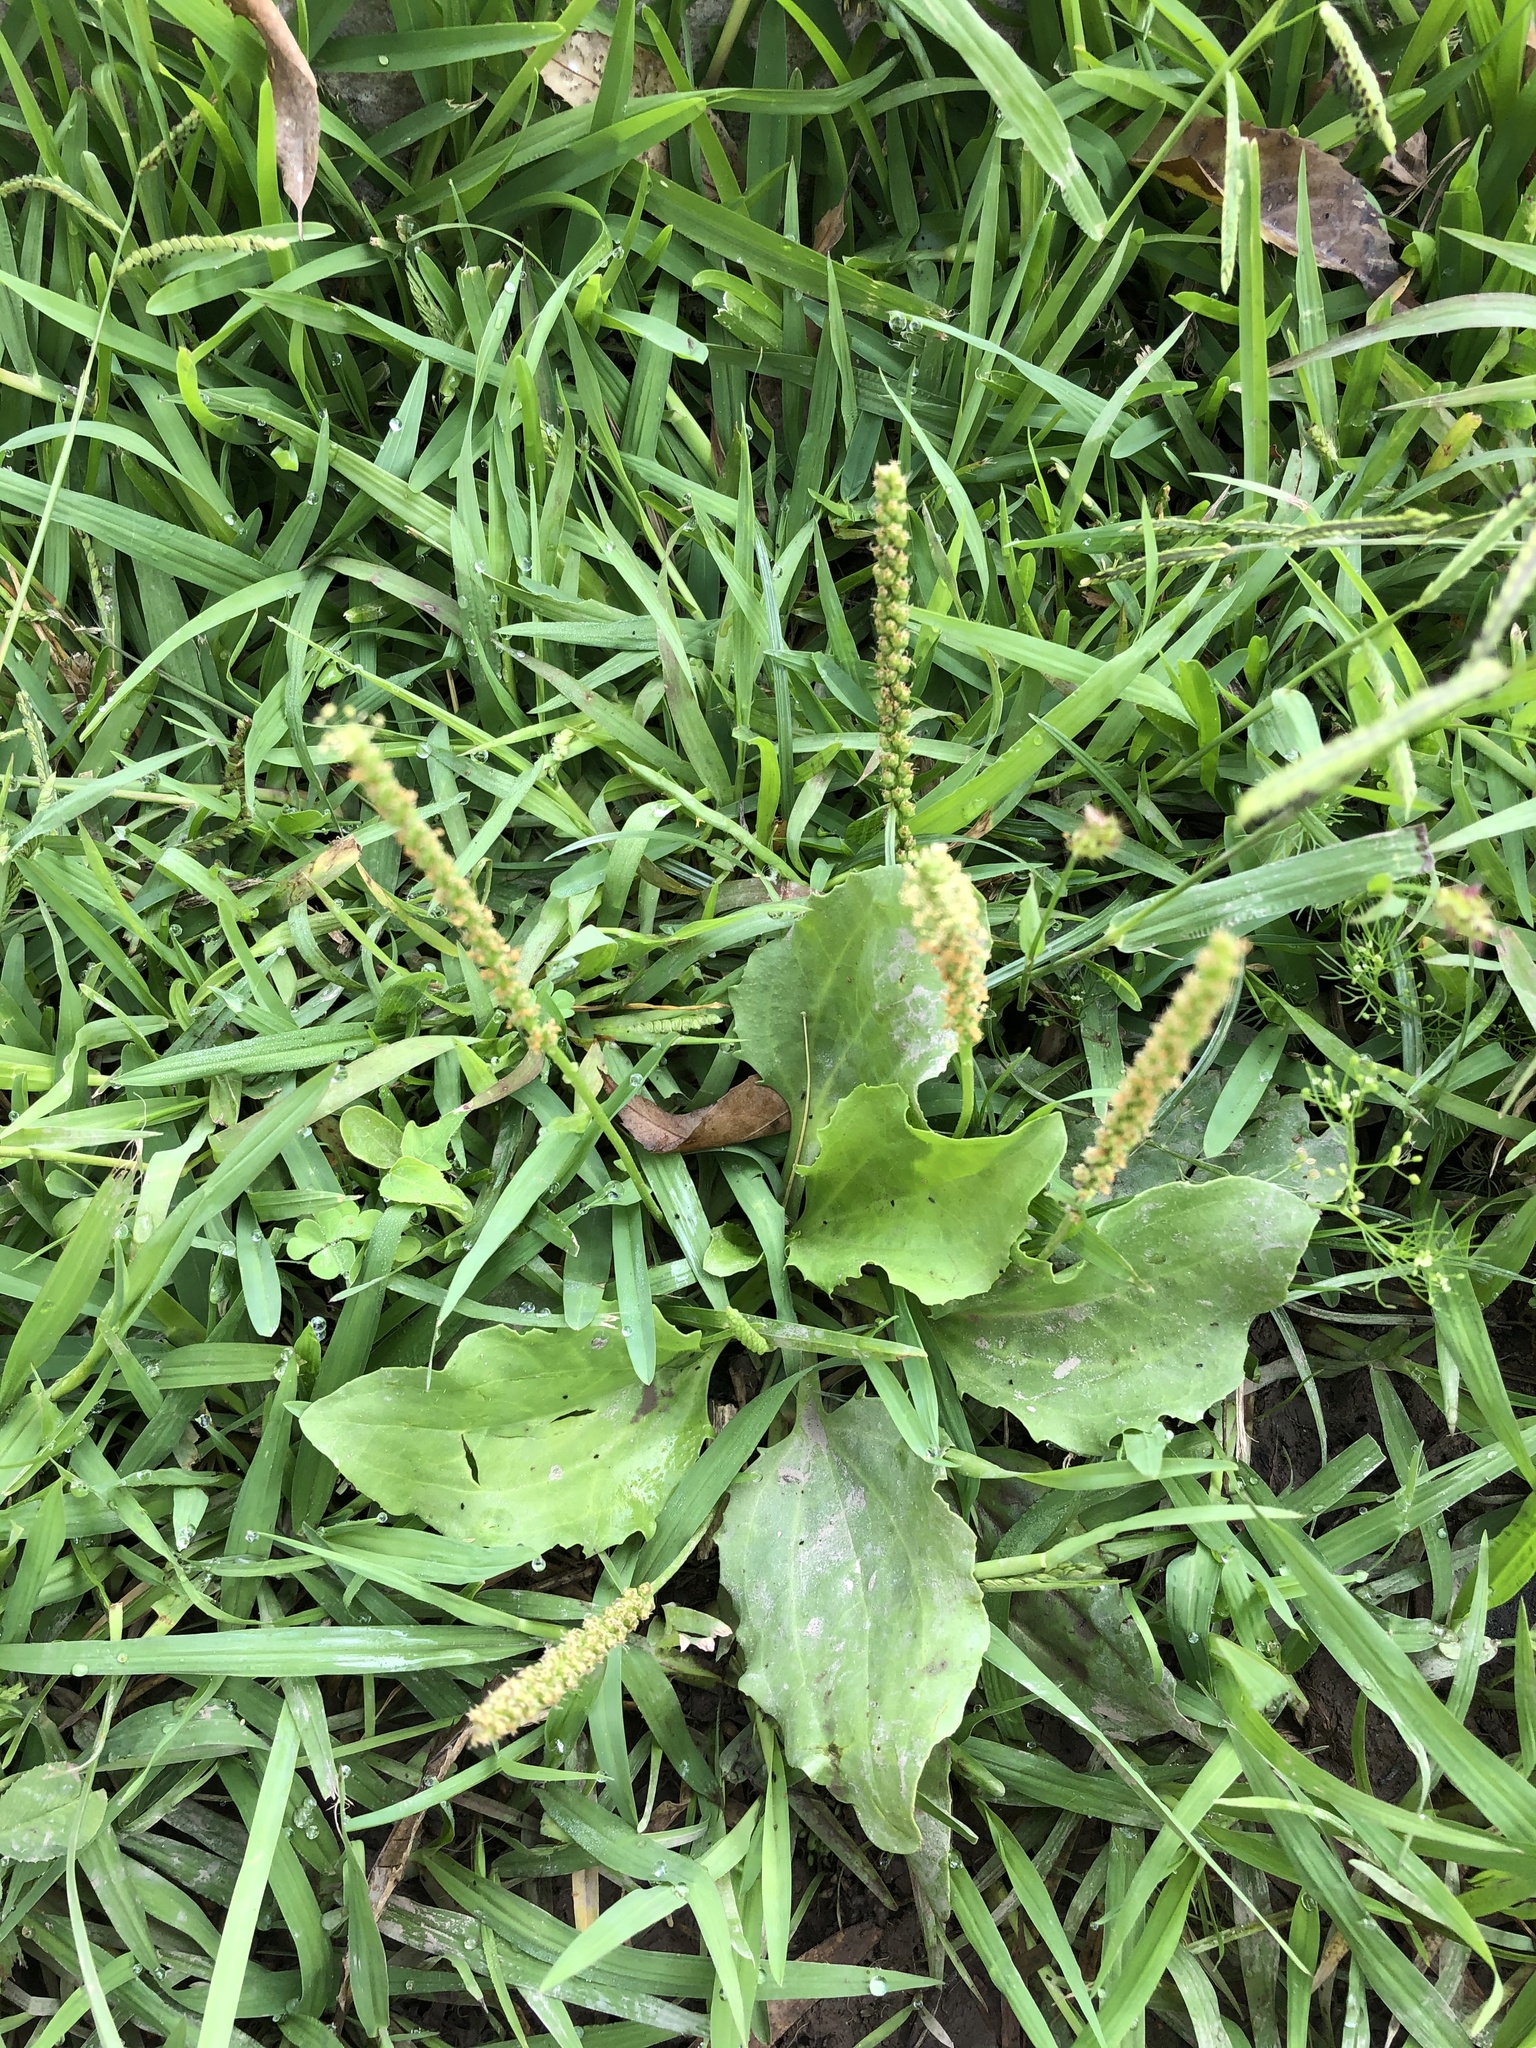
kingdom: Plantae
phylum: Tracheophyta
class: Magnoliopsida
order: Lamiales
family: Plantaginaceae
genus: Plantago
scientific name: Plantago major
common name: Common plantain
